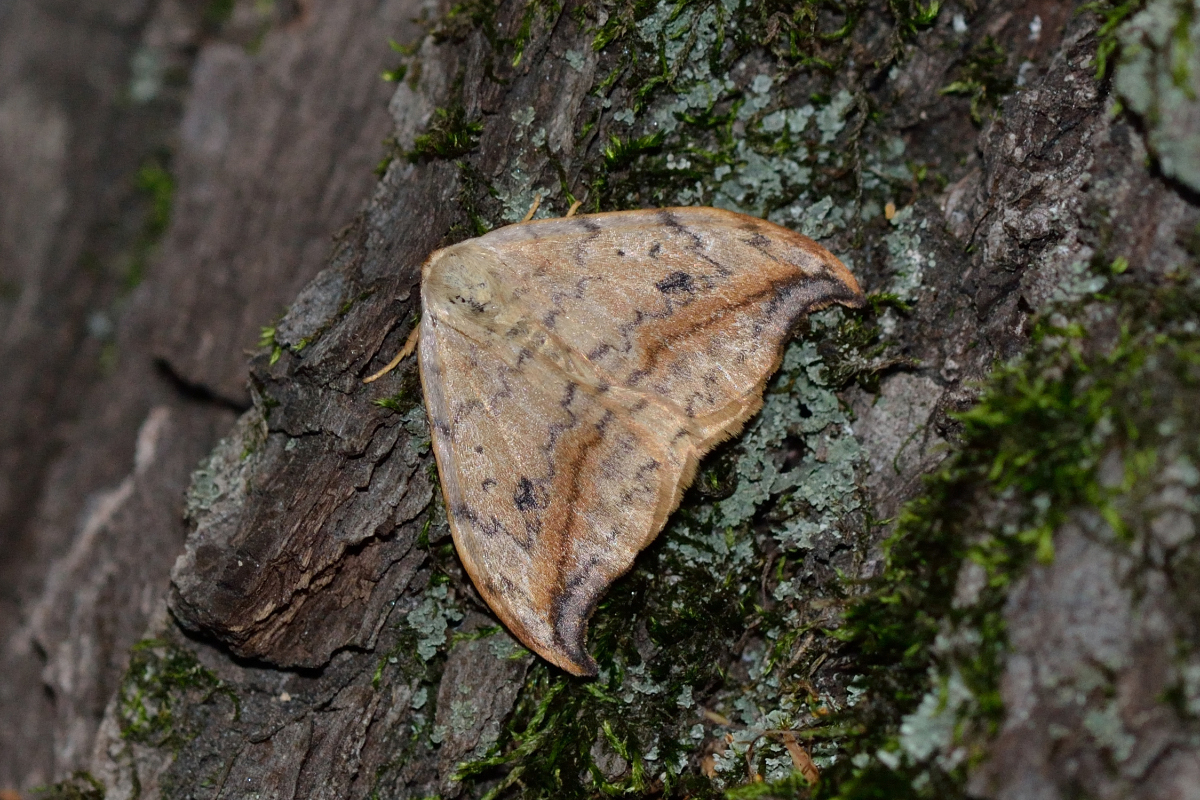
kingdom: Animalia
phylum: Arthropoda
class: Insecta
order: Lepidoptera
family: Drepanidae
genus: Drepana
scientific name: Drepana falcataria
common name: Pebble hook-tip
